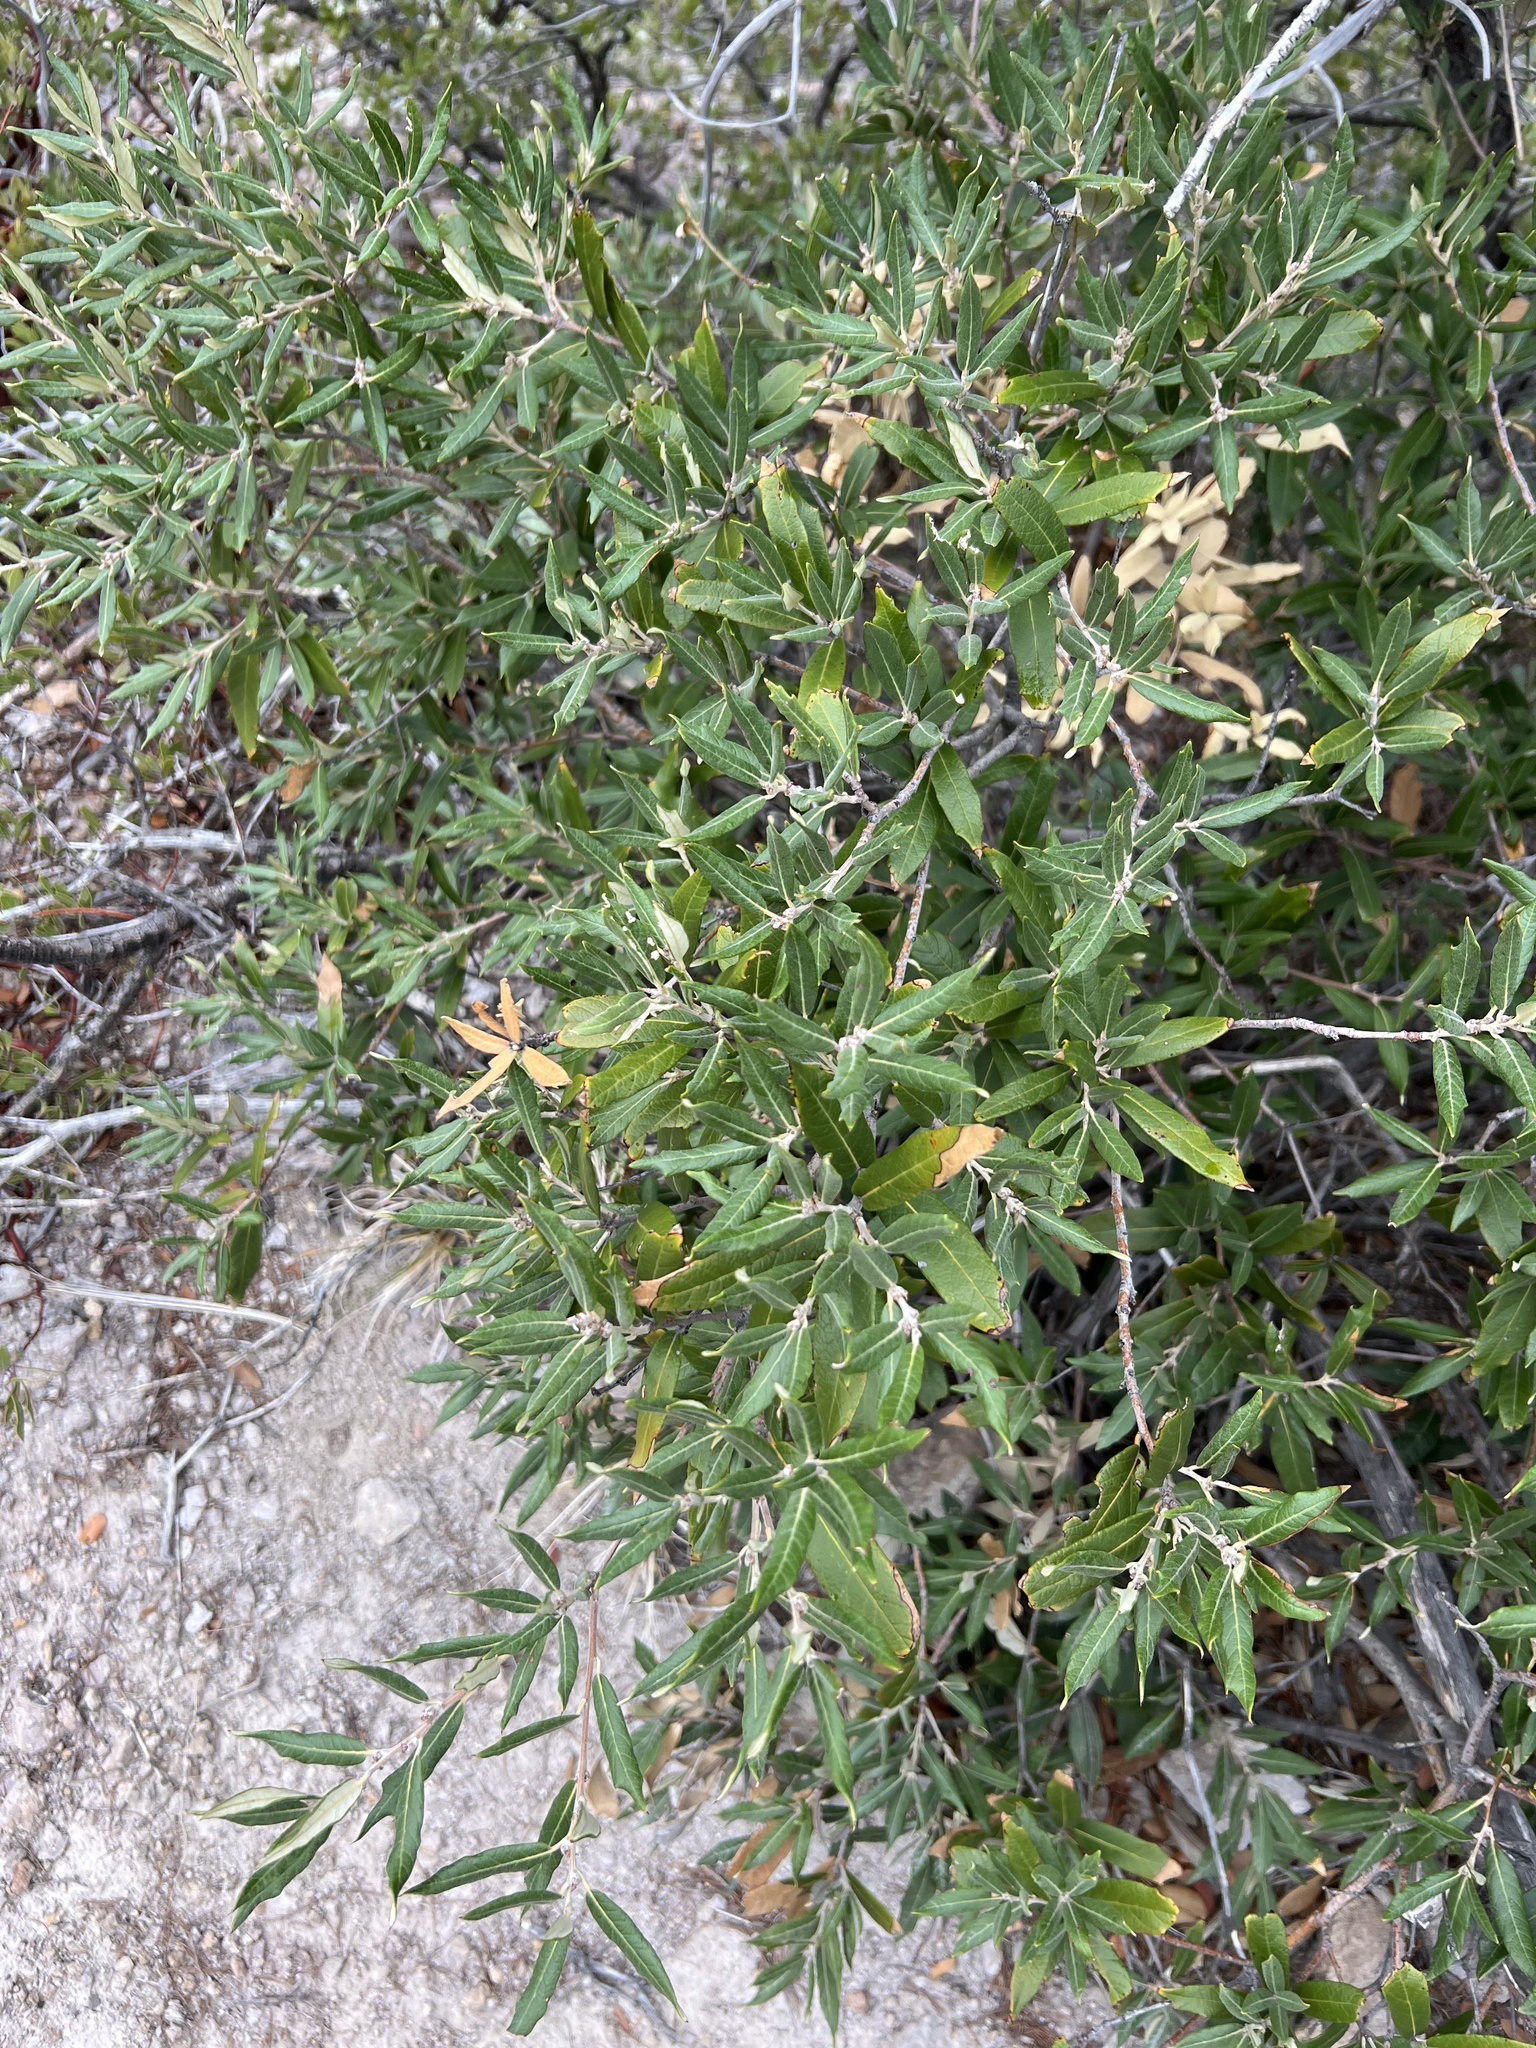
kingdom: Plantae
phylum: Tracheophyta
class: Magnoliopsida
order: Fagales
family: Fagaceae
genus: Quercus
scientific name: Quercus hypoleucoides
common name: Silverleaf oak
